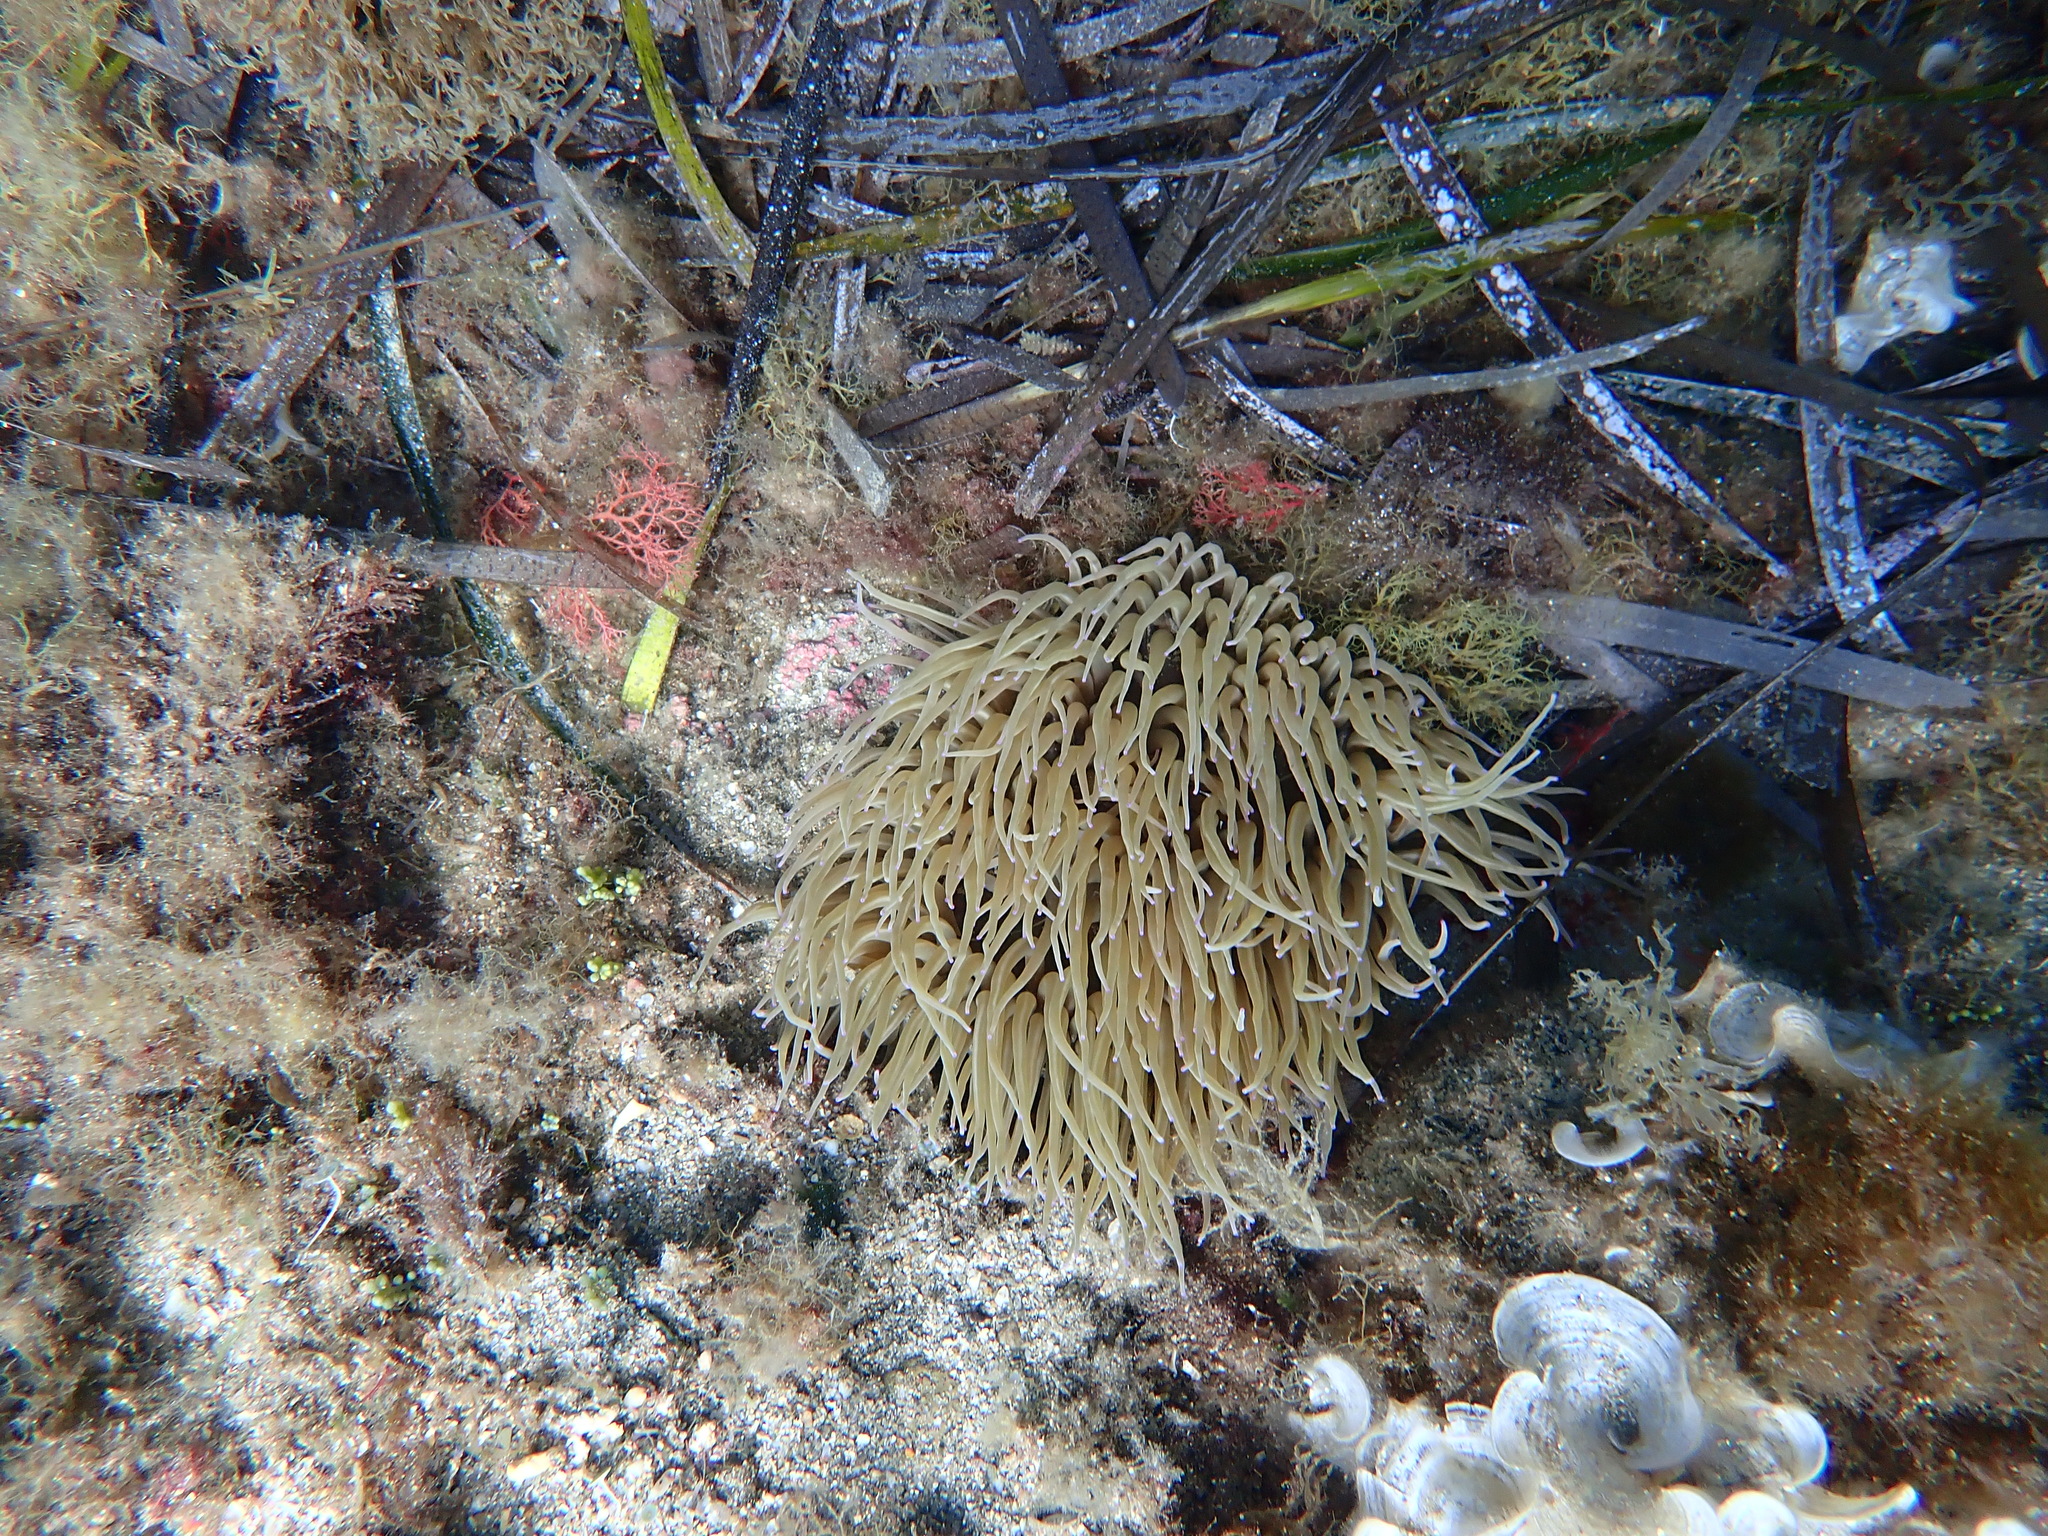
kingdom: Animalia
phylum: Cnidaria
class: Anthozoa
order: Actiniaria
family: Actiniidae
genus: Anemonia
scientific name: Anemonia viridis
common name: Snakelocks anemone
